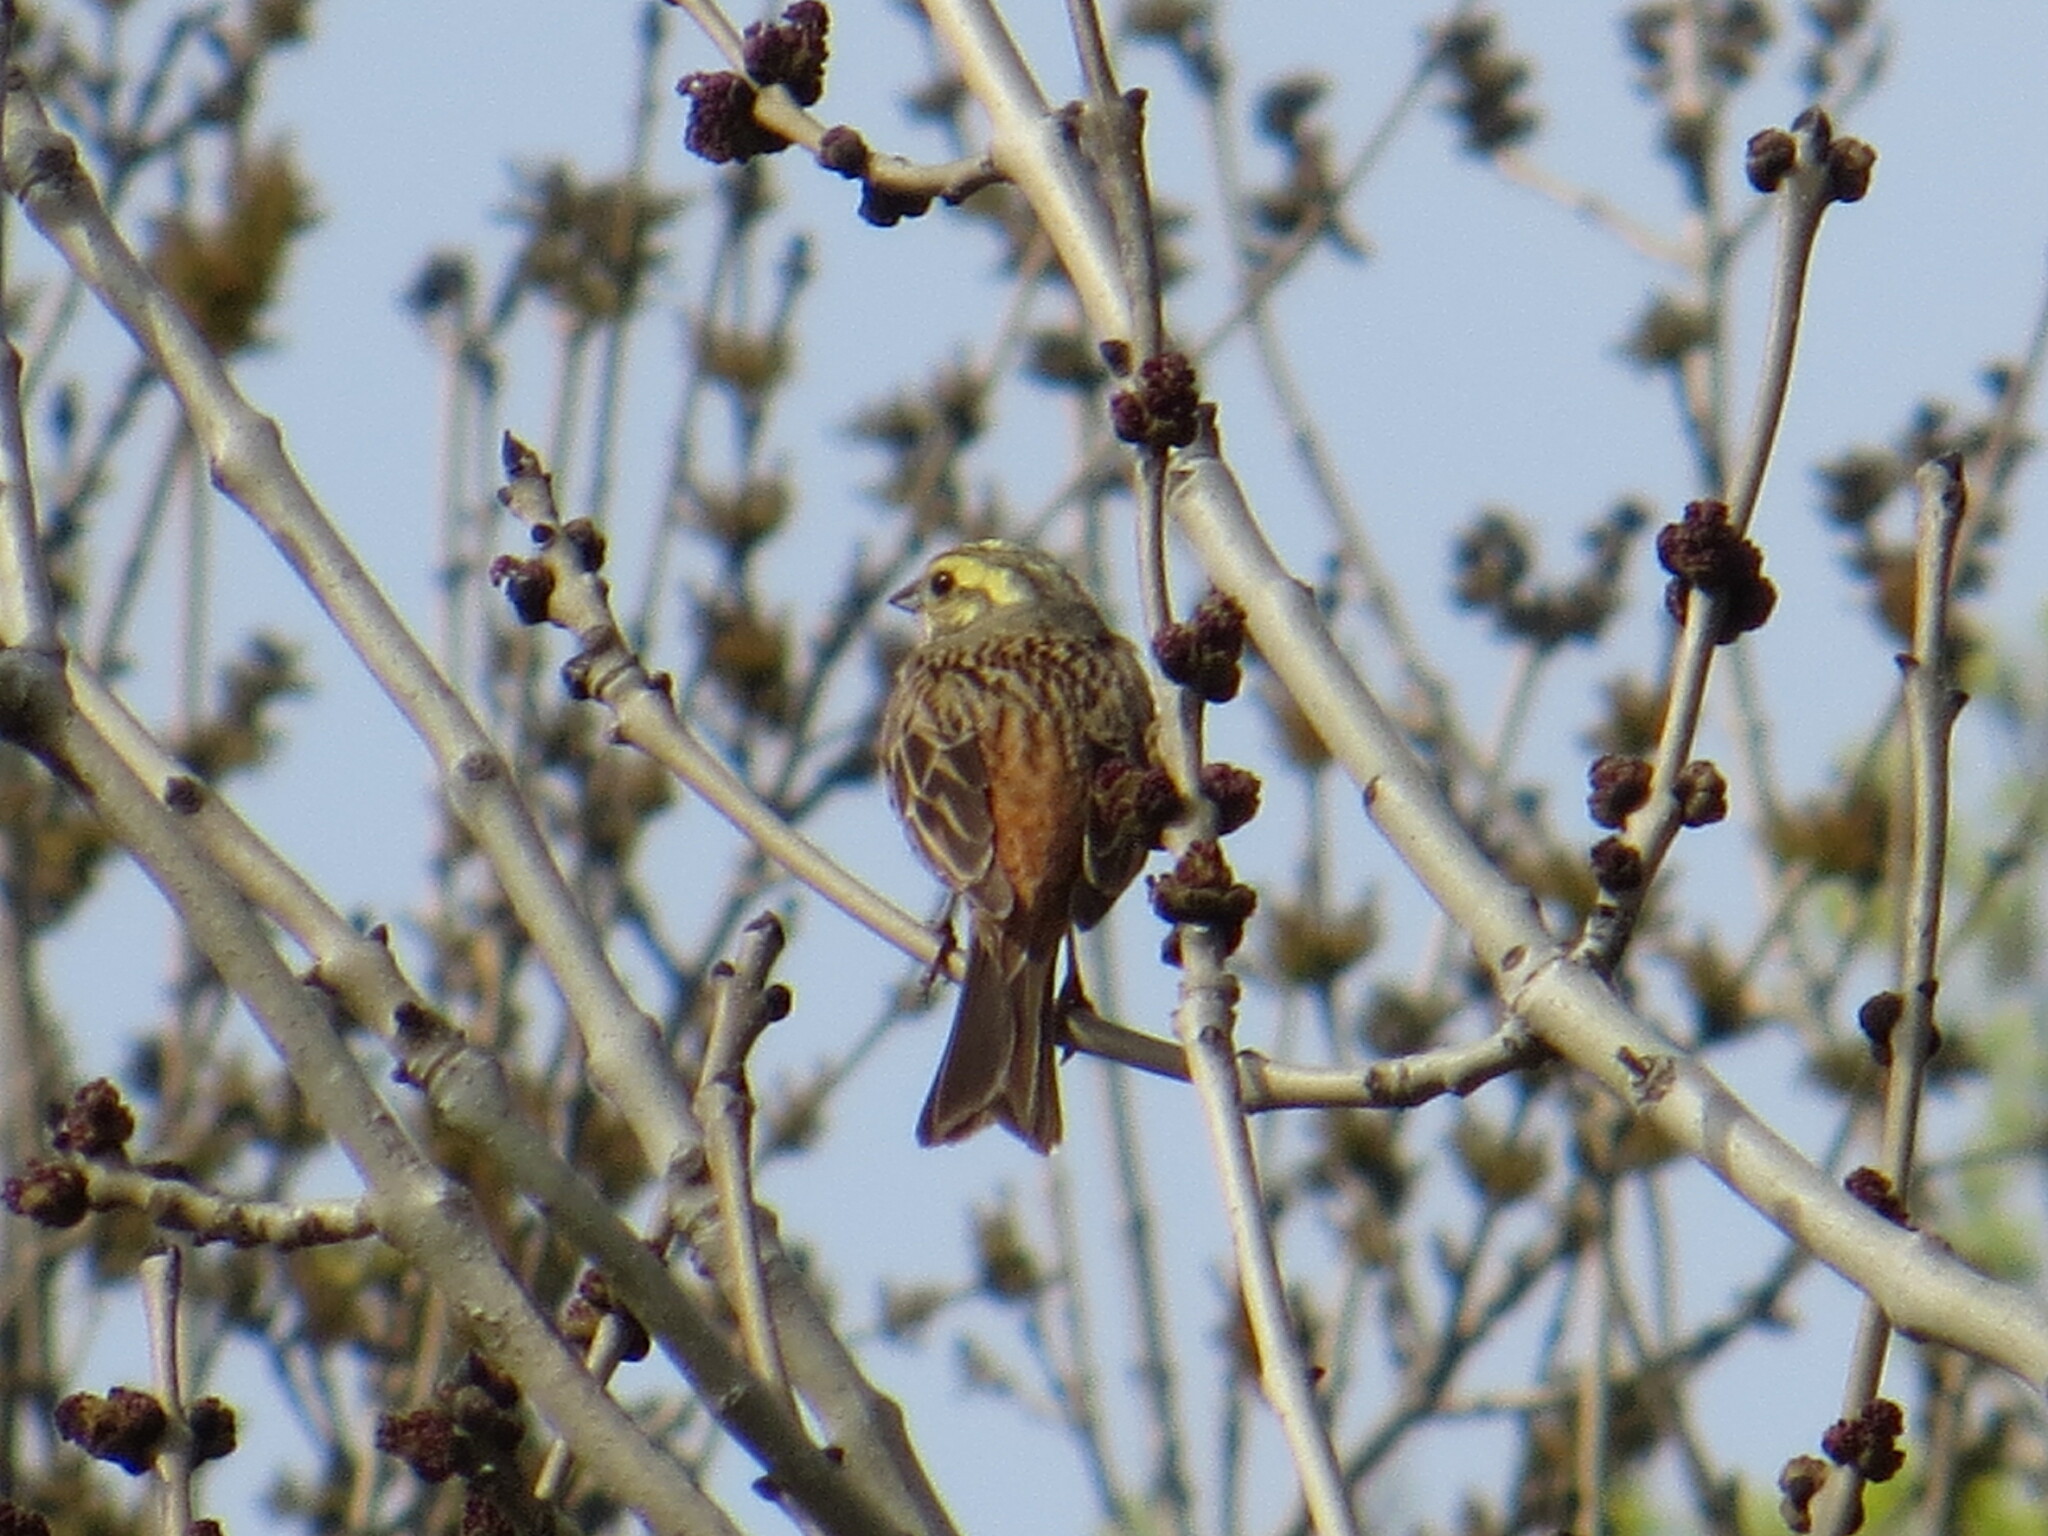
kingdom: Animalia
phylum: Chordata
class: Aves
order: Passeriformes
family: Emberizidae
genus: Emberiza
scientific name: Emberiza citrinella
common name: Yellowhammer
